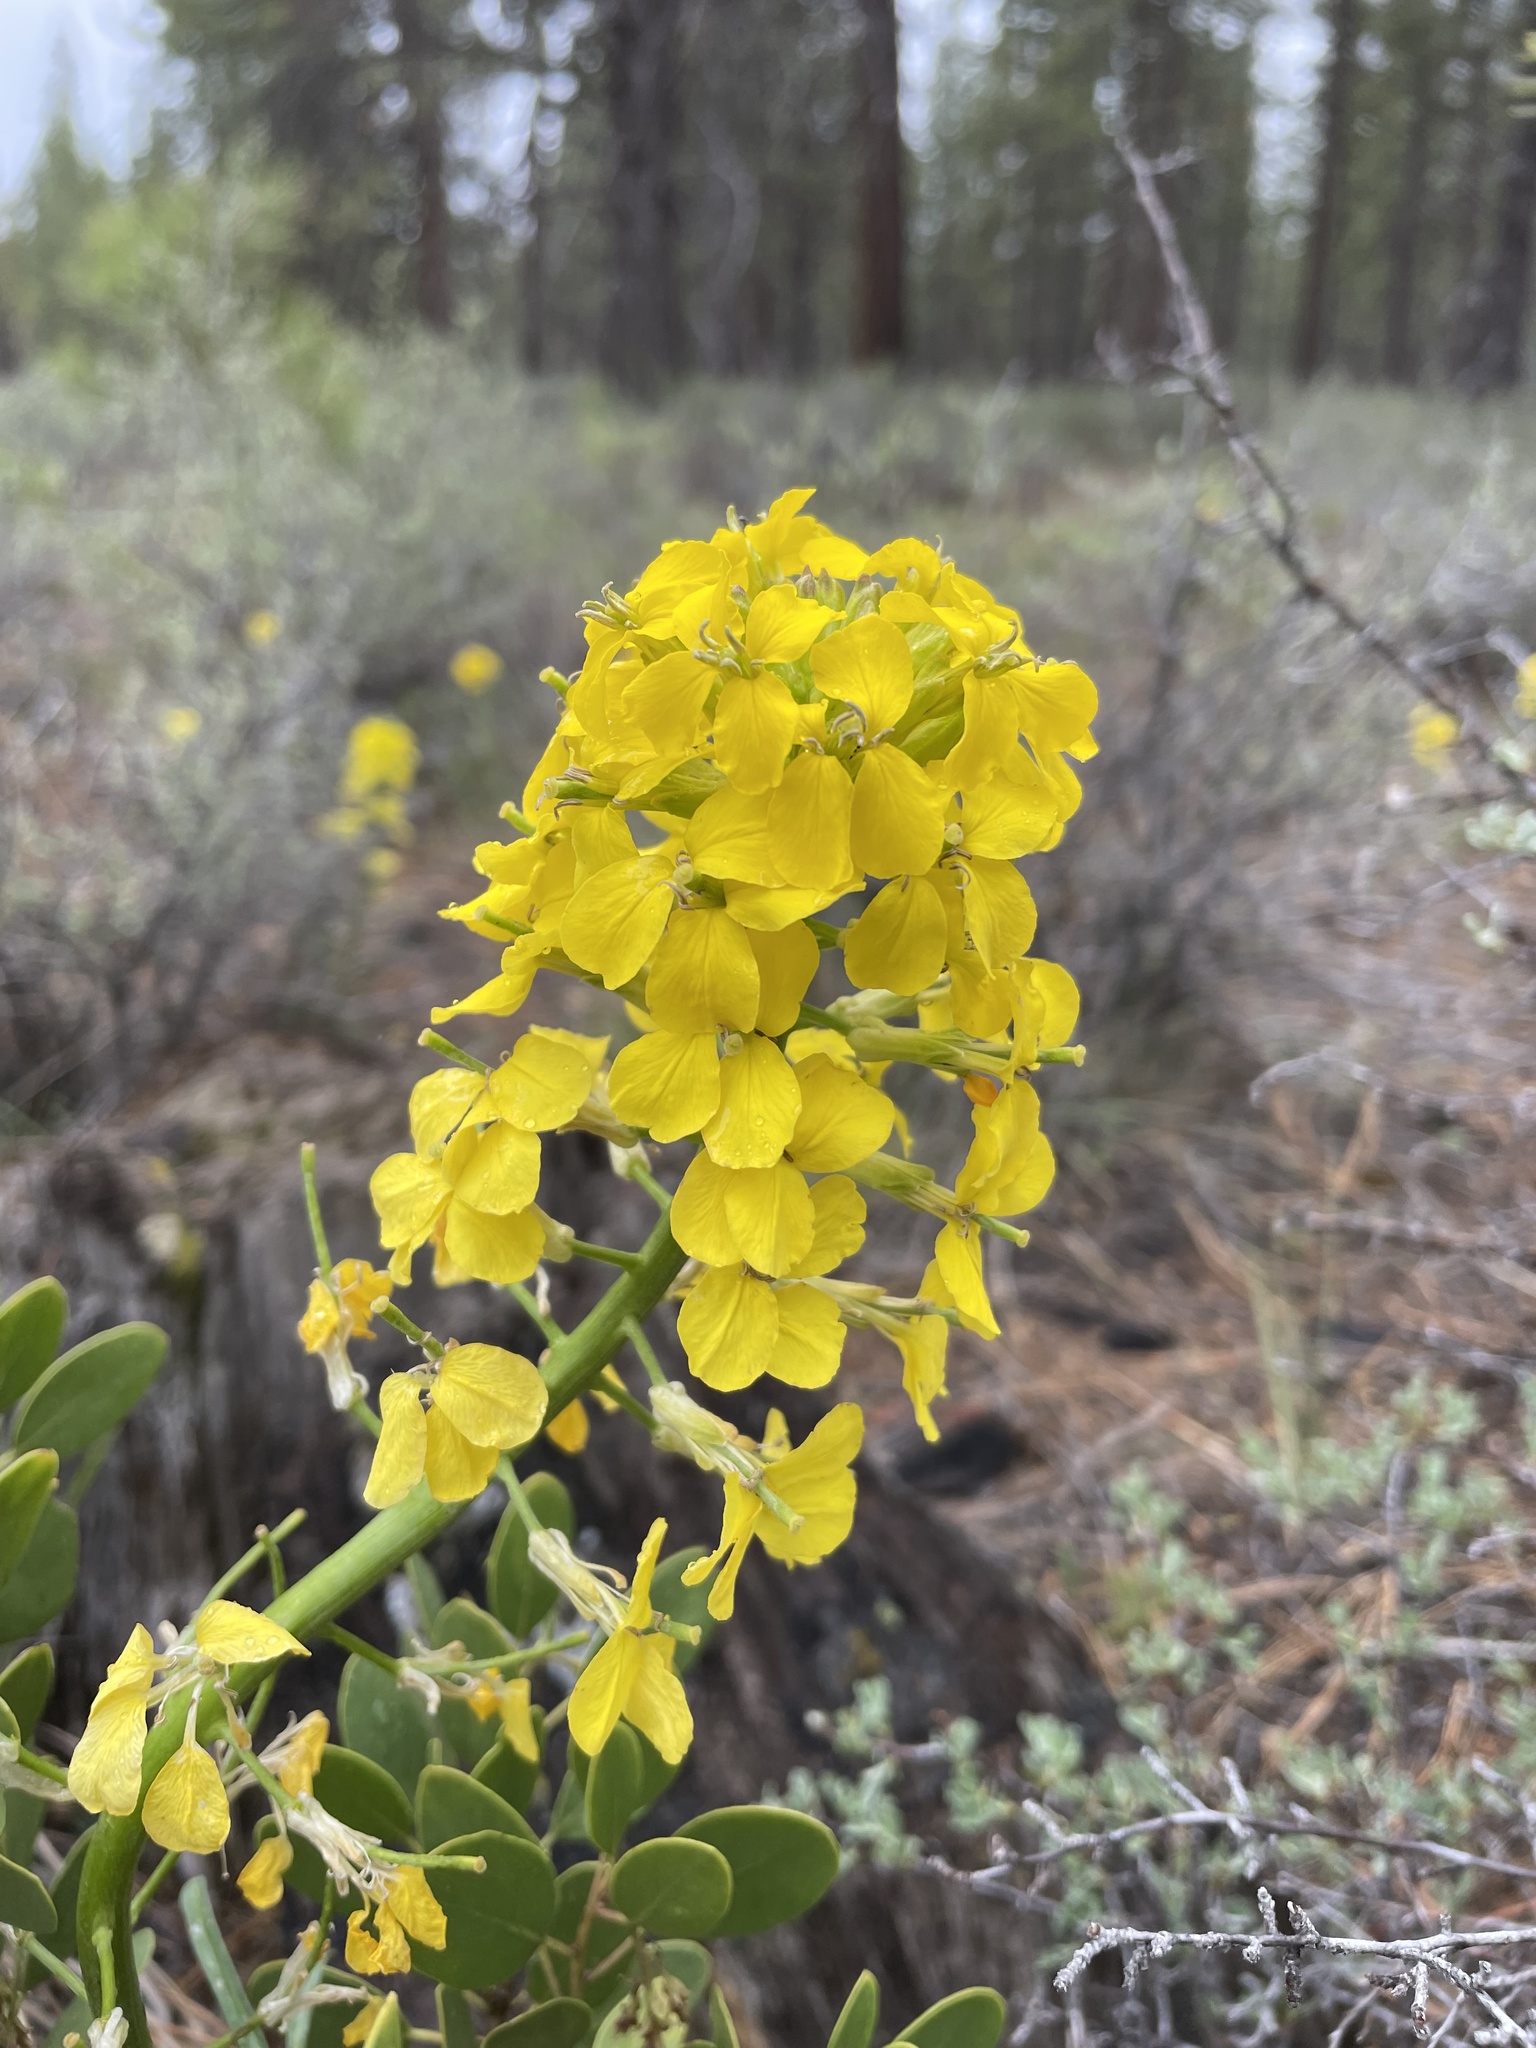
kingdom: Plantae
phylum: Tracheophyta
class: Magnoliopsida
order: Brassicales
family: Brassicaceae
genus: Erysimum
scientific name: Erysimum capitatum
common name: Western wallflower
